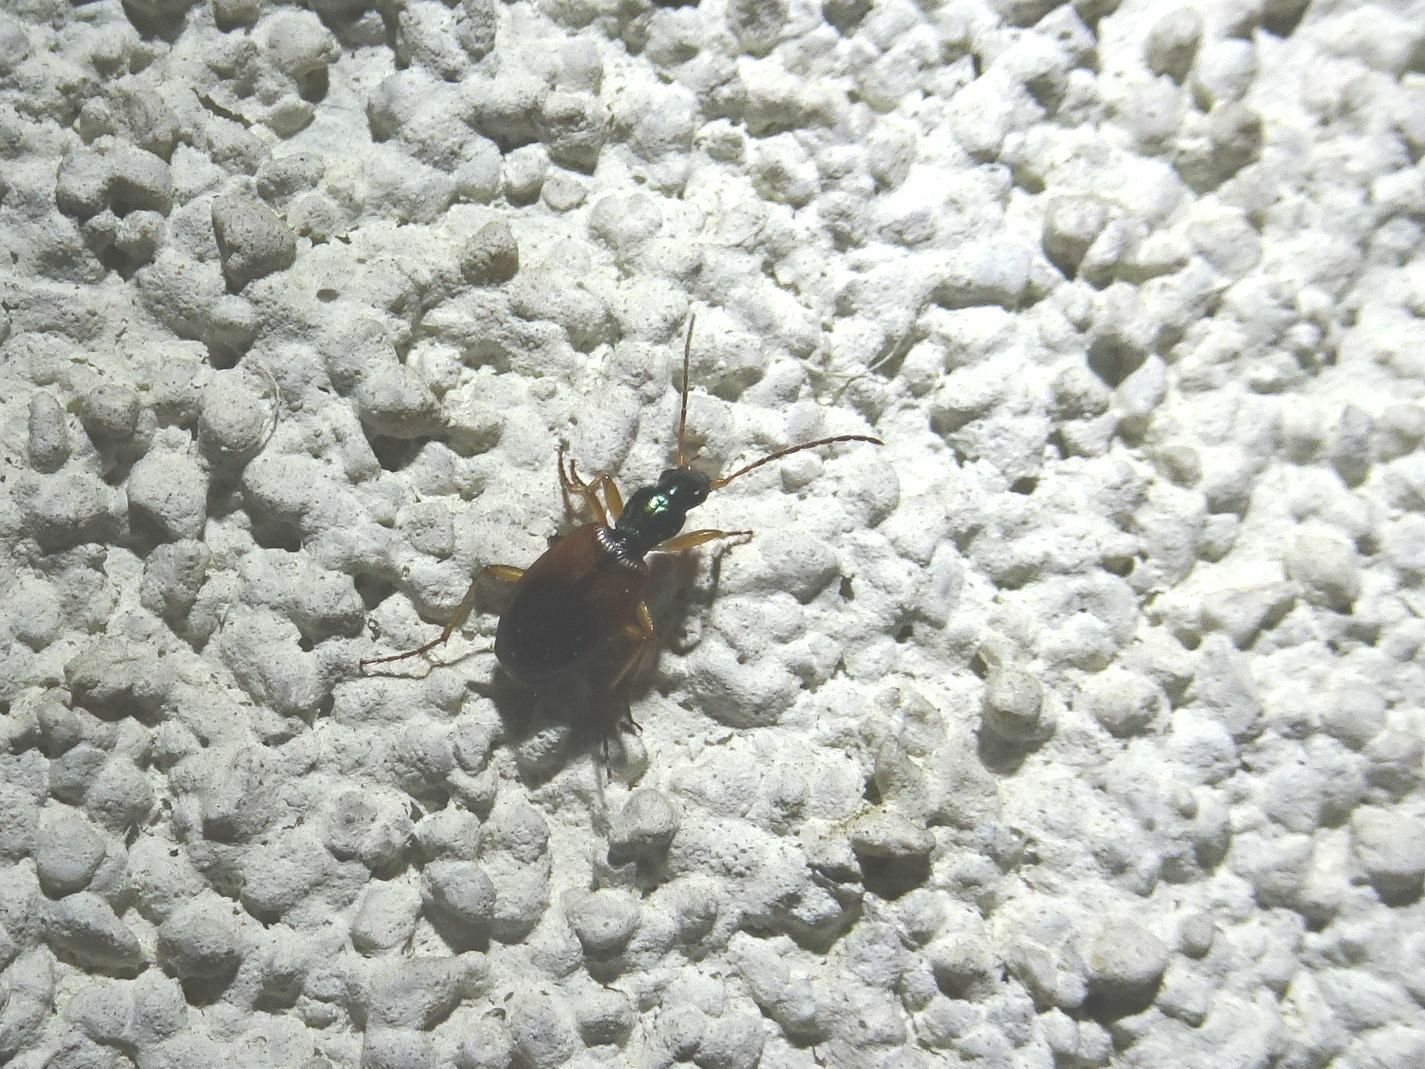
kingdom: Animalia
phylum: Arthropoda
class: Insecta
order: Coleoptera
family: Carabidae
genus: Anchomenus
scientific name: Anchomenus dorsalis
